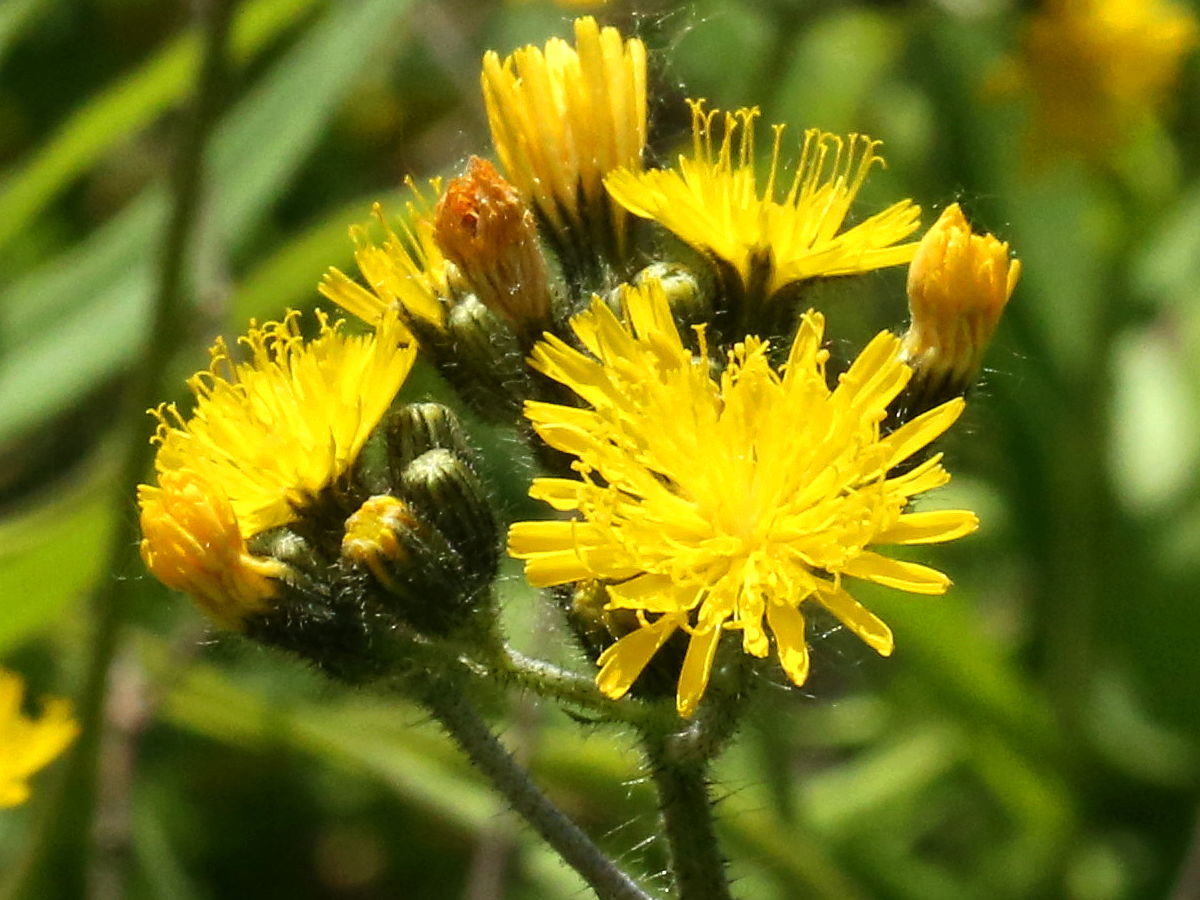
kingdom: Plantae
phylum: Tracheophyta
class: Magnoliopsida
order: Asterales
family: Asteraceae
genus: Pilosella
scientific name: Pilosella caespitosa
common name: Yellow fox-and-cubs
